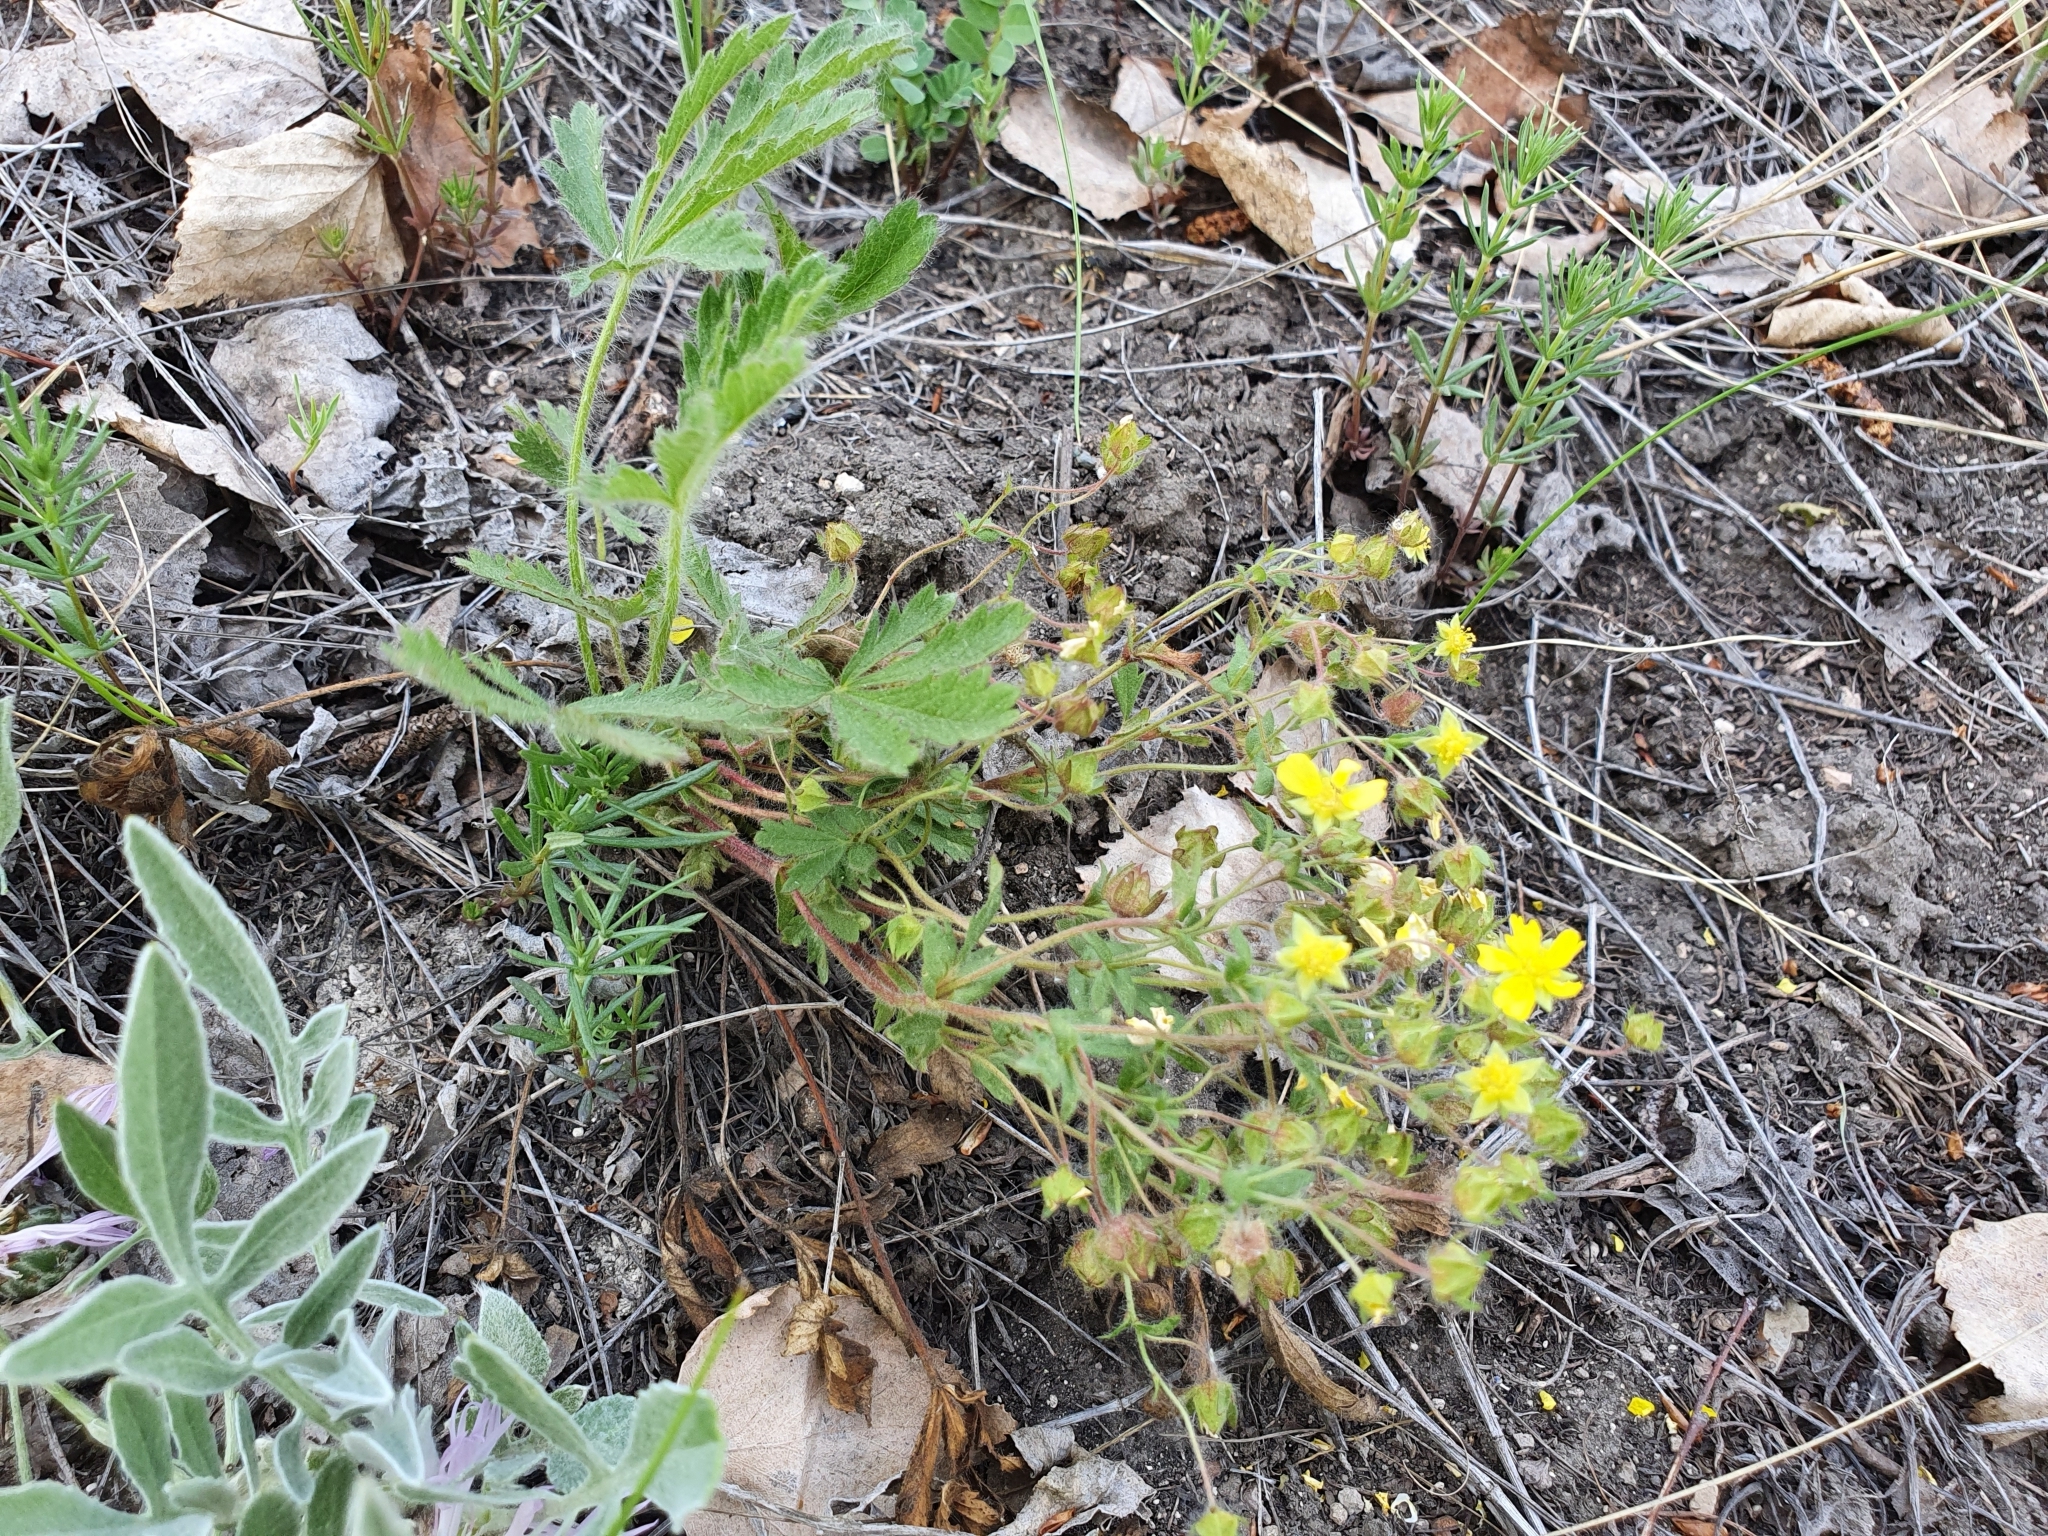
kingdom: Plantae
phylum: Tracheophyta
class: Magnoliopsida
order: Rosales
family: Rosaceae
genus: Potentilla
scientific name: Potentilla humifusa
